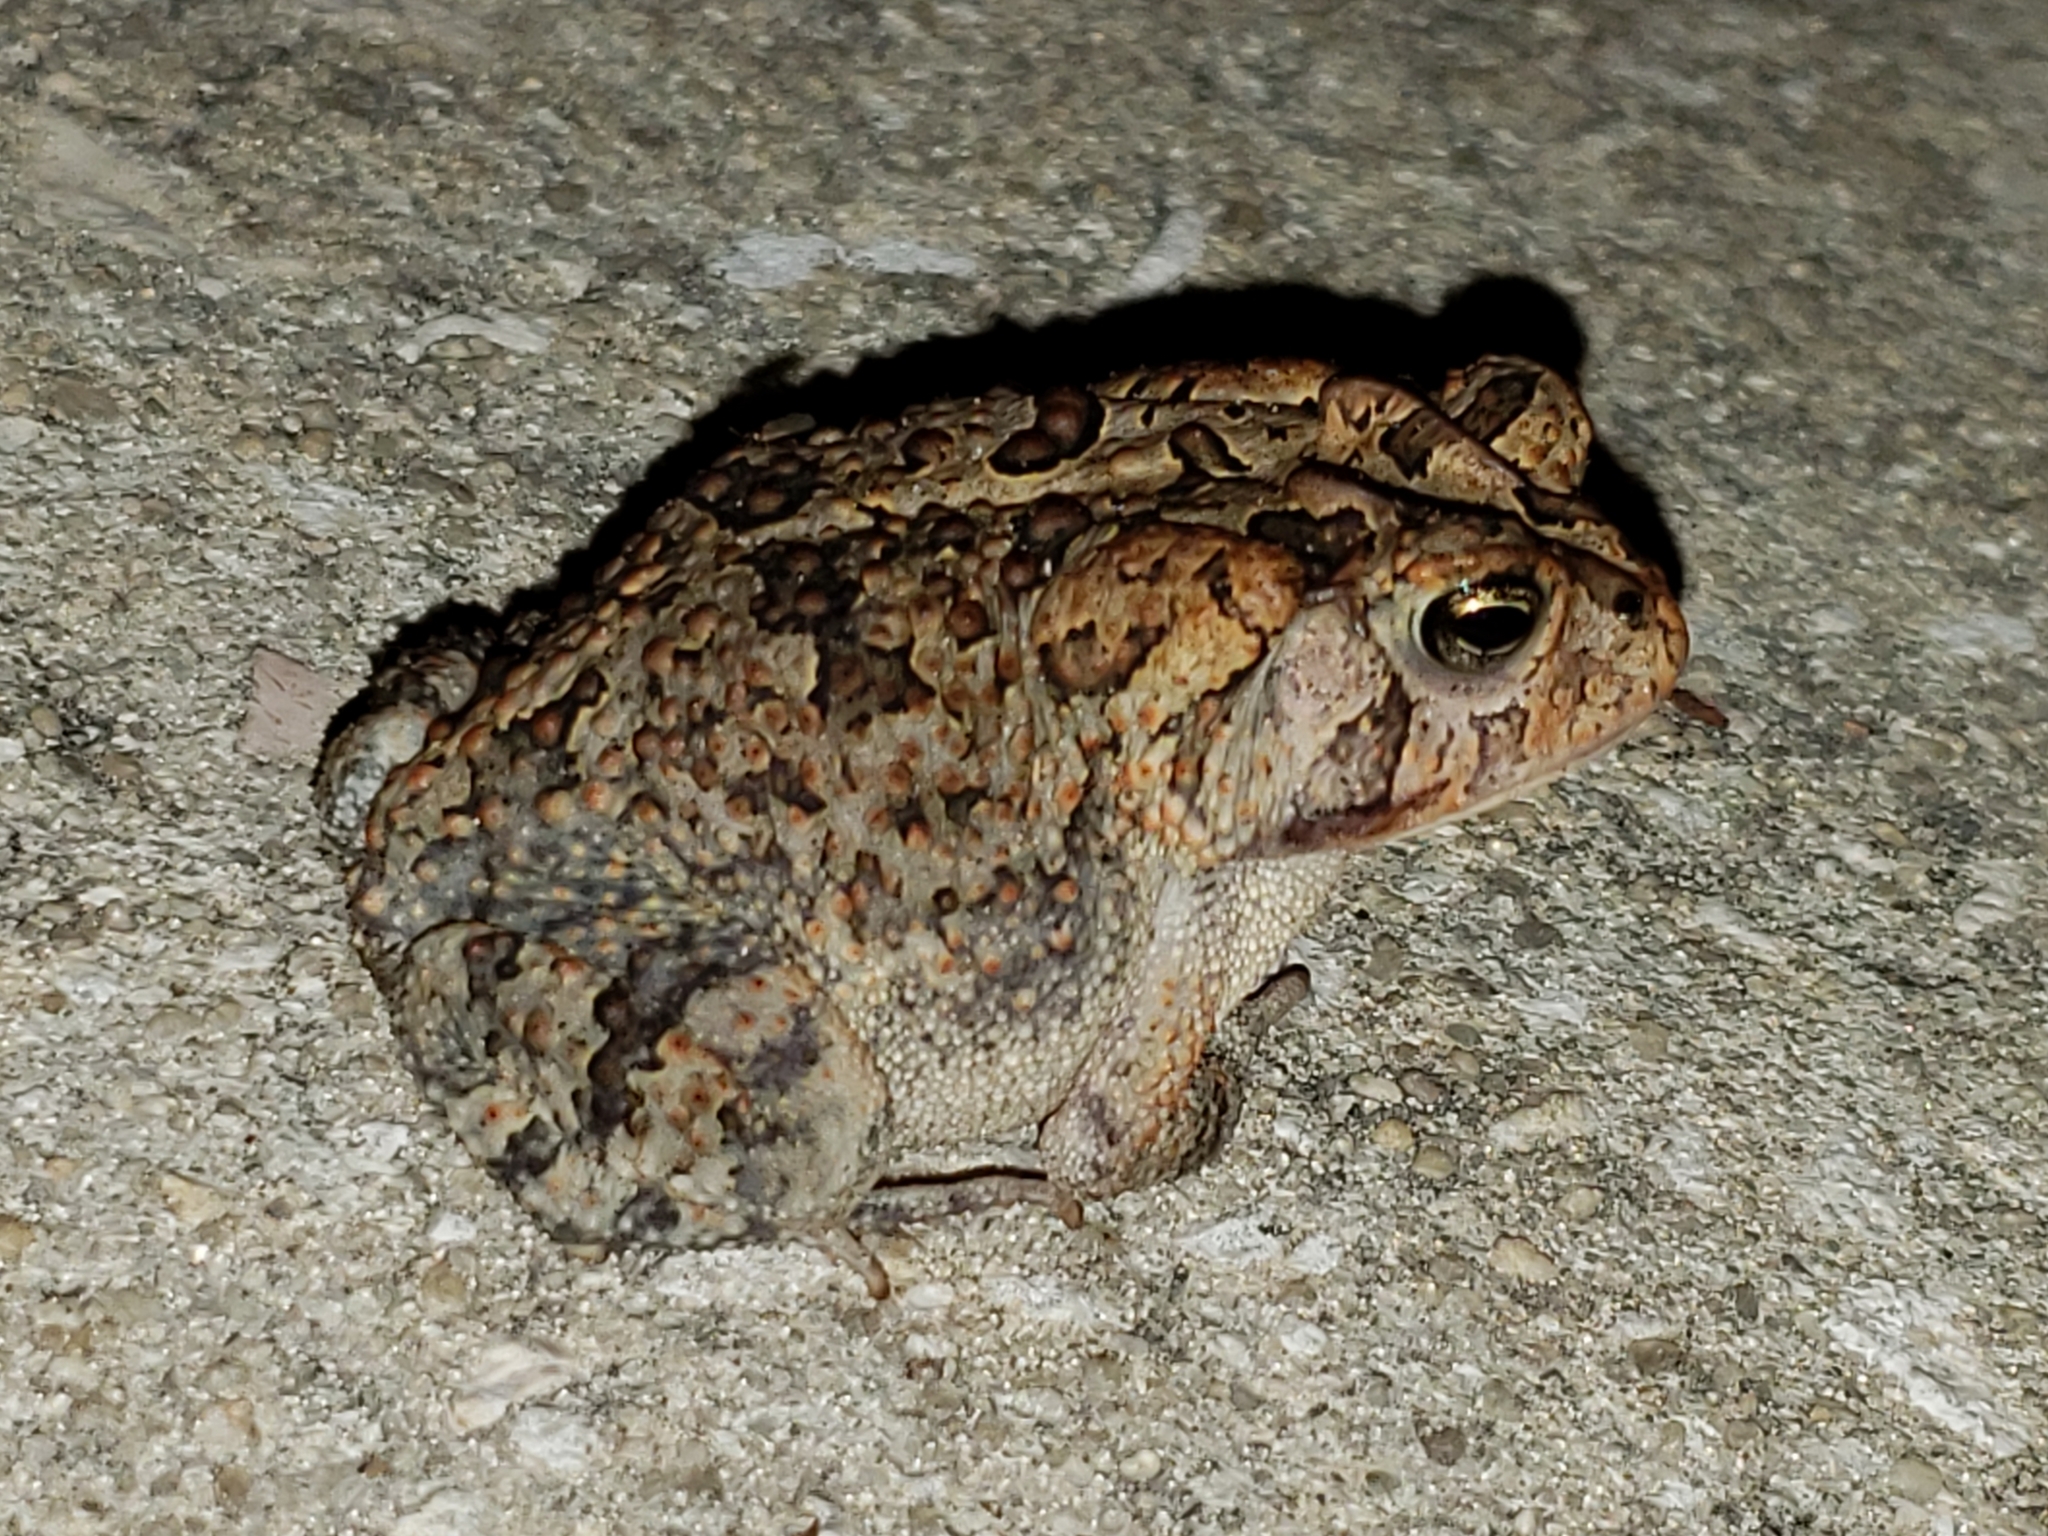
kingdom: Animalia
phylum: Chordata
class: Amphibia
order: Anura
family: Bufonidae
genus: Anaxyrus
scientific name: Anaxyrus terrestris
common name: Southern toad
